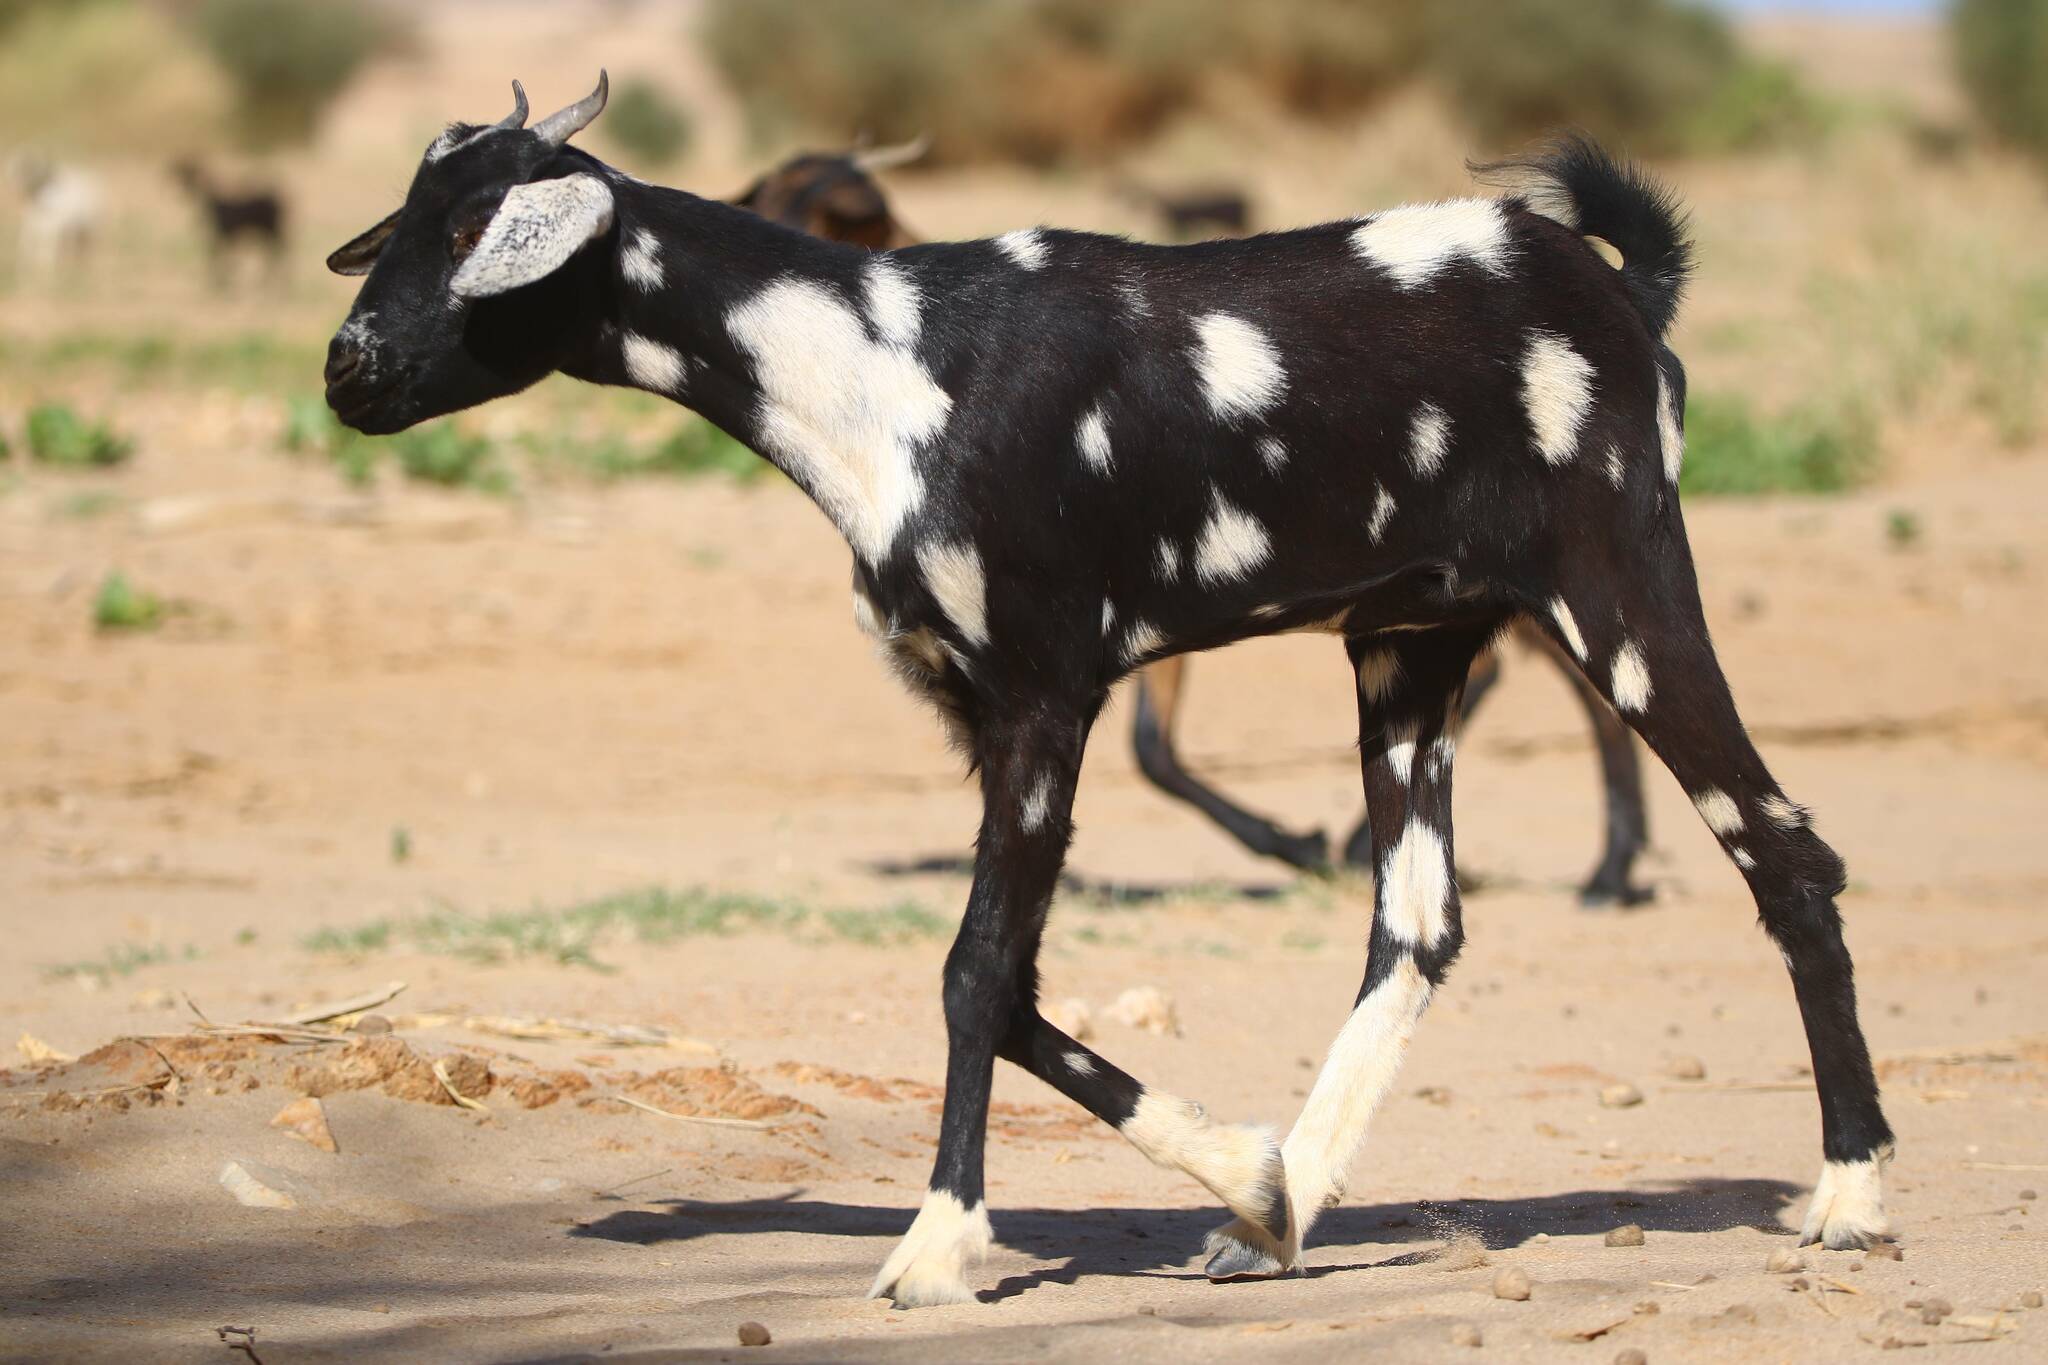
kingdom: Animalia
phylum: Chordata
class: Mammalia
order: Artiodactyla
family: Bovidae
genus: Capra
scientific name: Capra hircus
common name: Domestic goat
